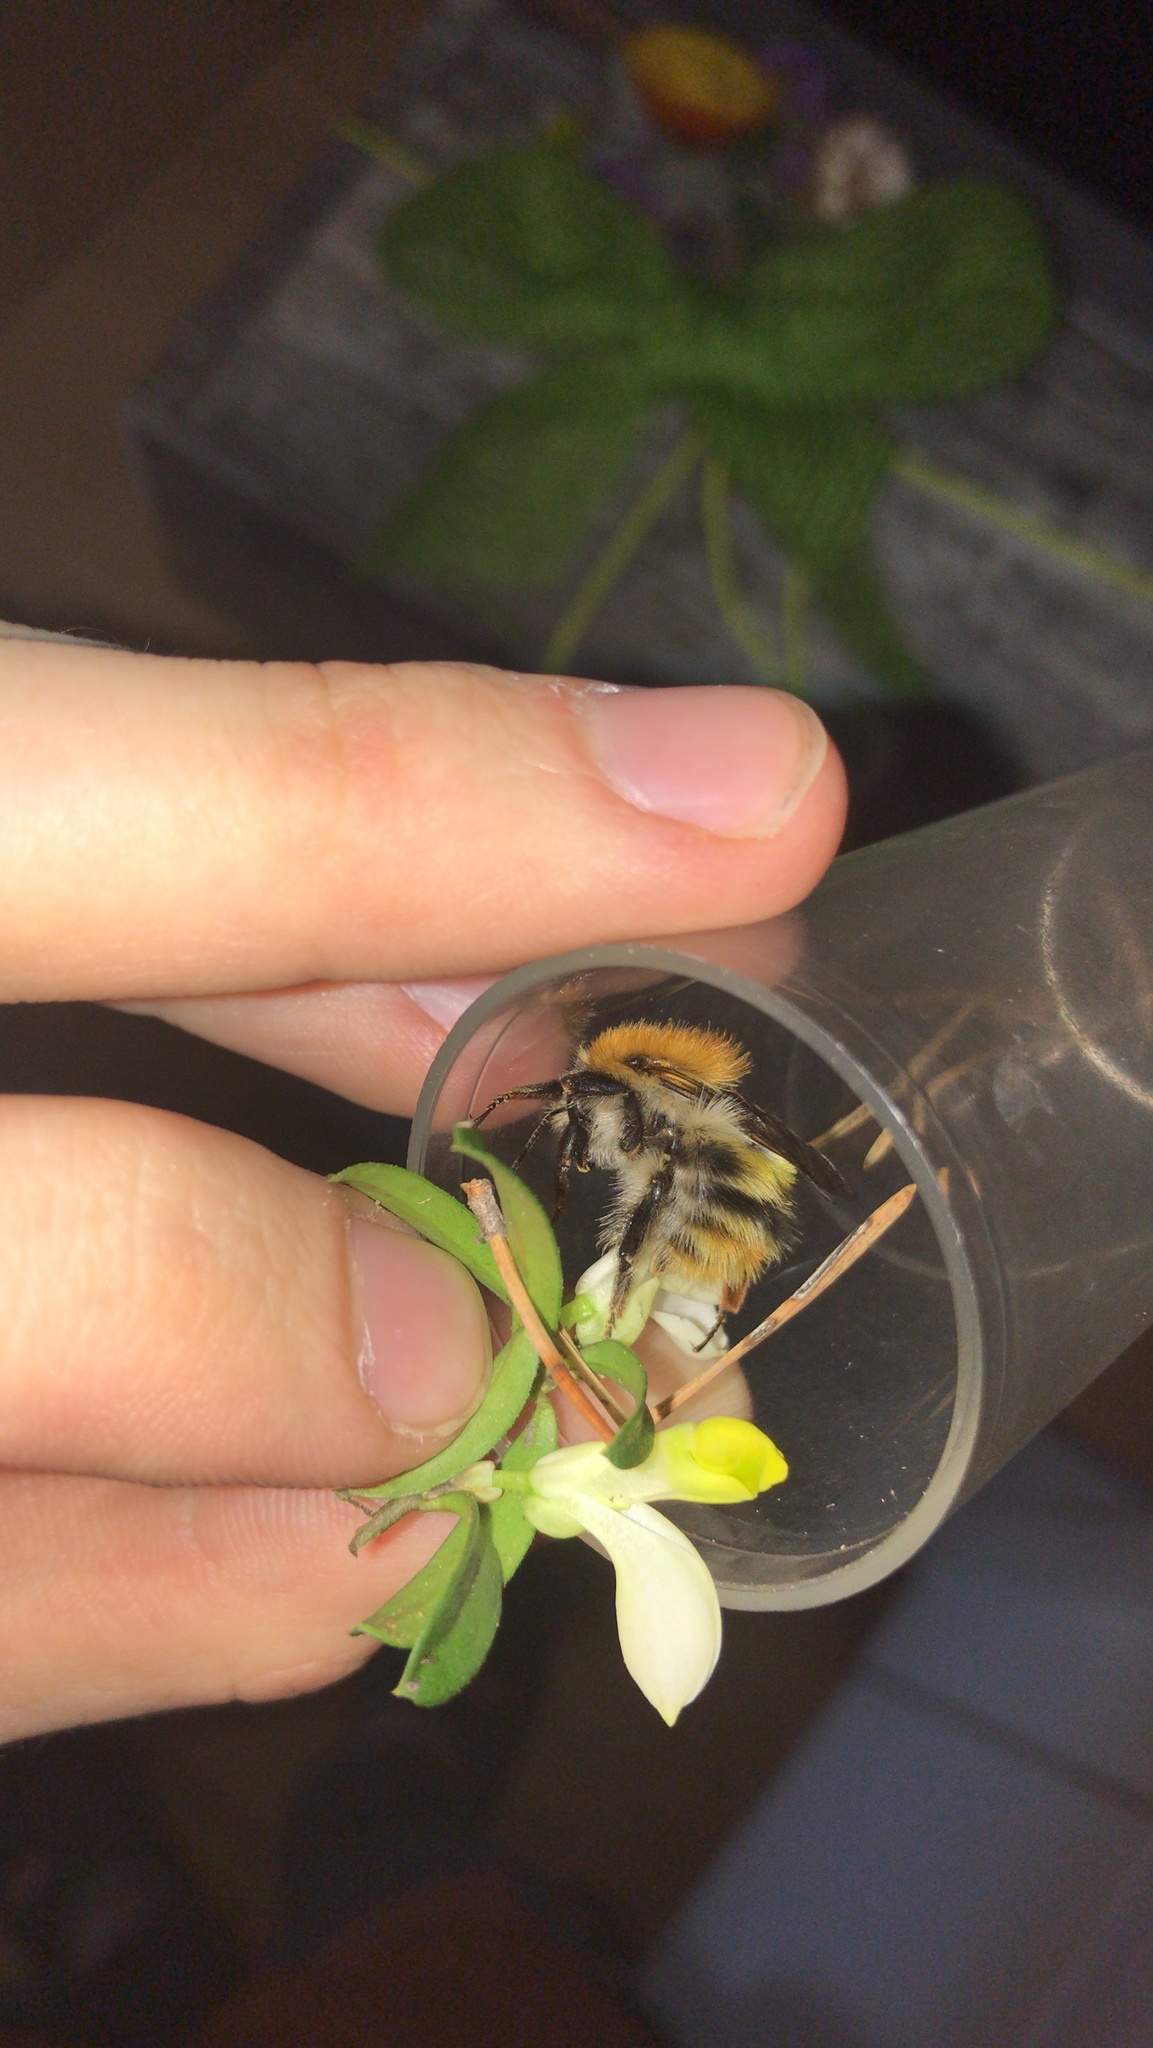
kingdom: Animalia
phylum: Arthropoda
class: Insecta
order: Hymenoptera
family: Apidae
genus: Bombus
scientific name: Bombus pascuorum
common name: Common carder bee
